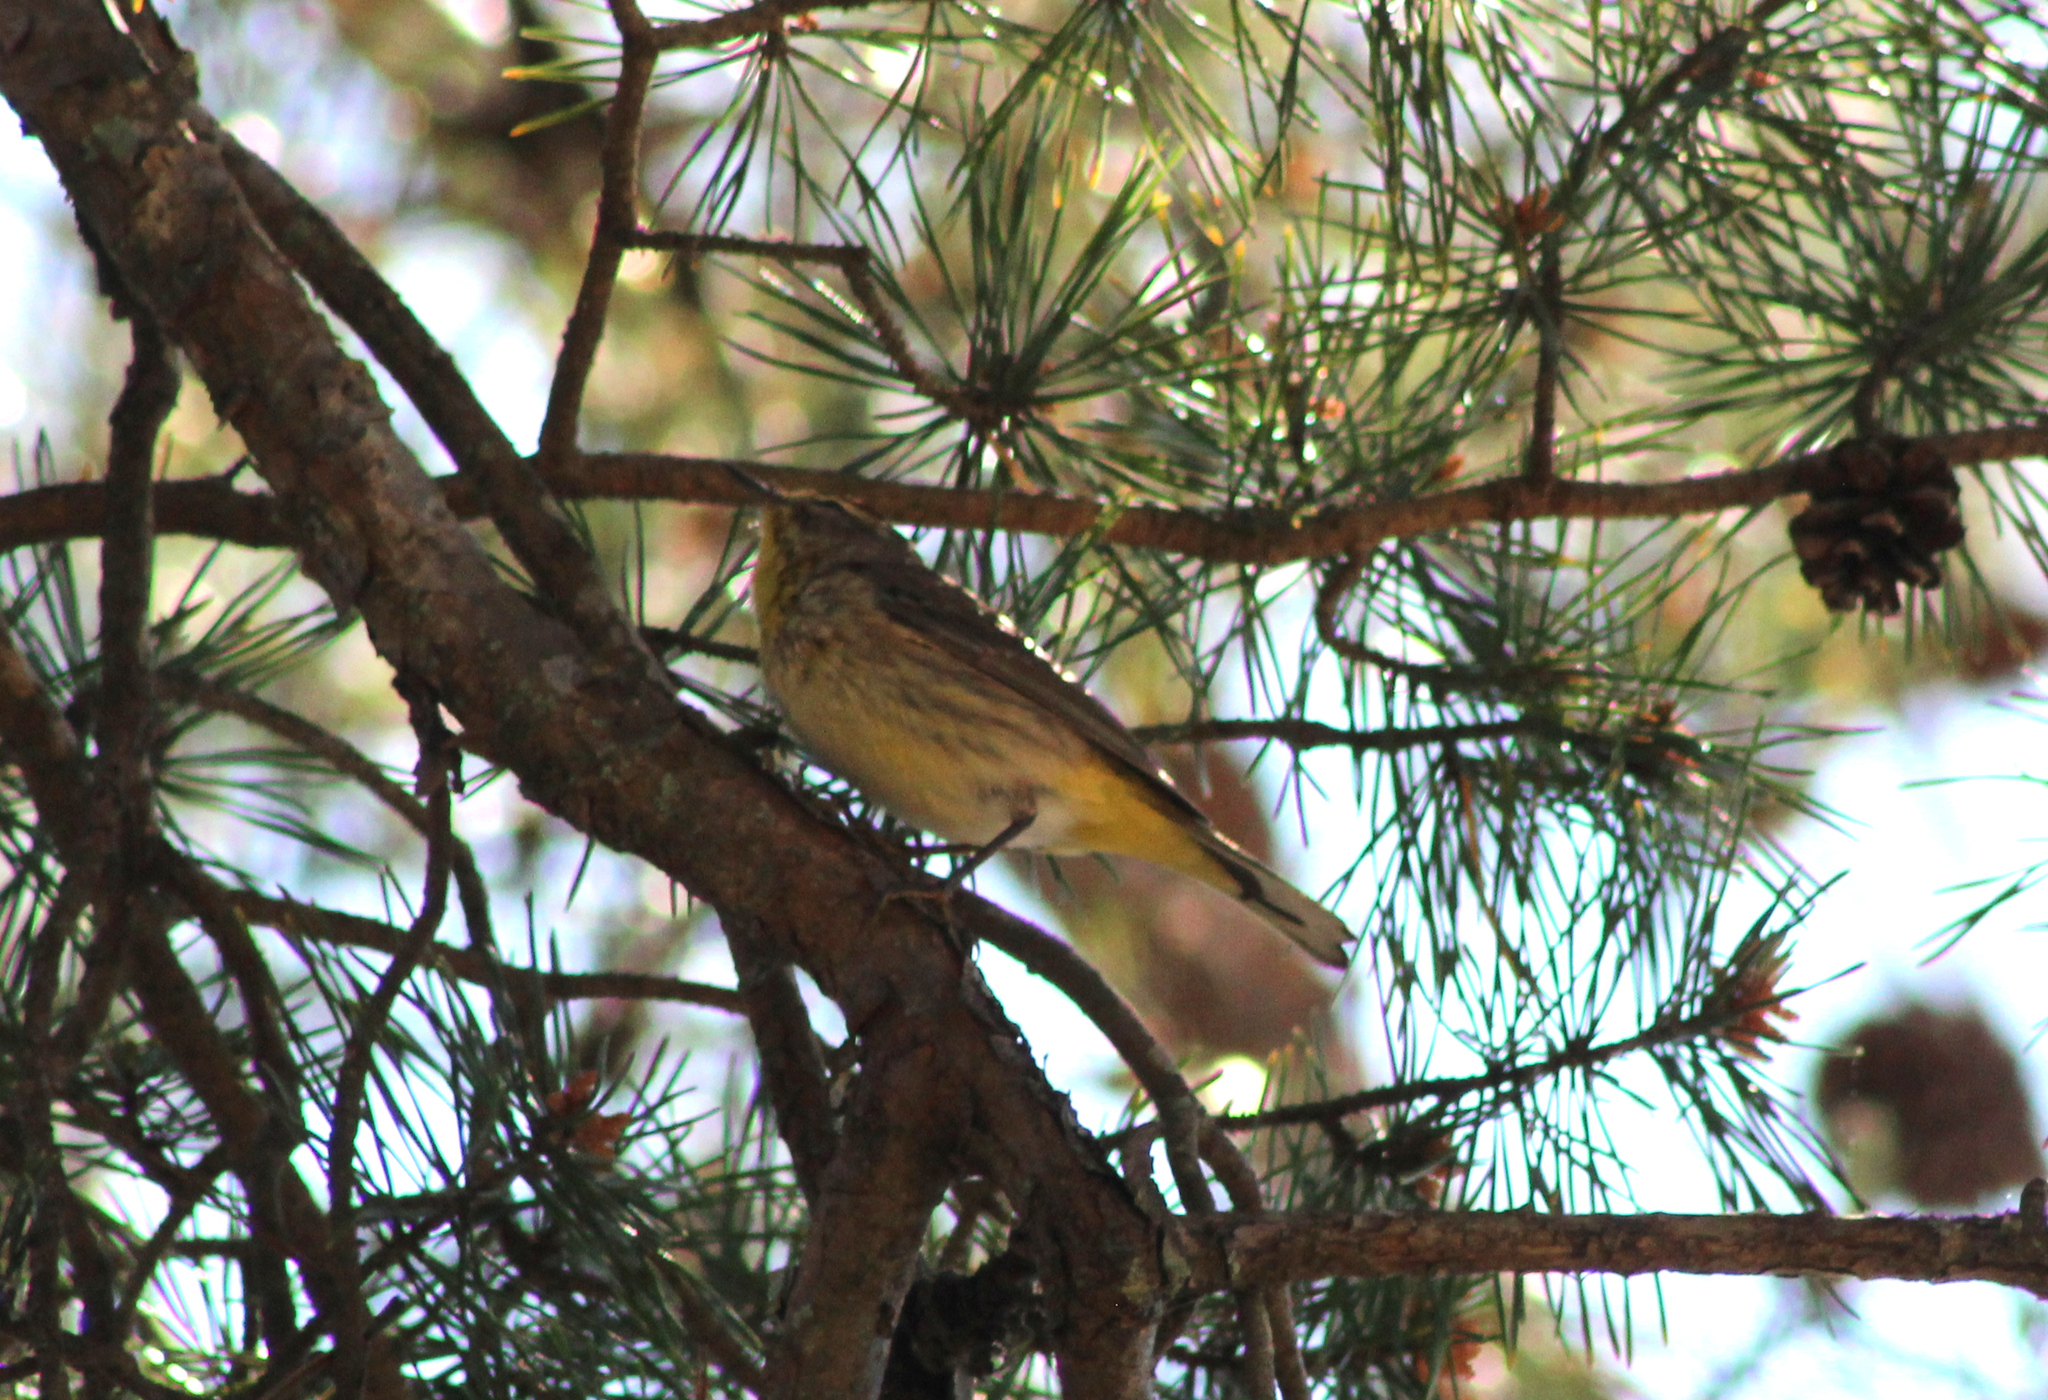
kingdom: Animalia
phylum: Chordata
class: Aves
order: Passeriformes
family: Parulidae
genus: Setophaga
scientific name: Setophaga palmarum
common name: Palm warbler
